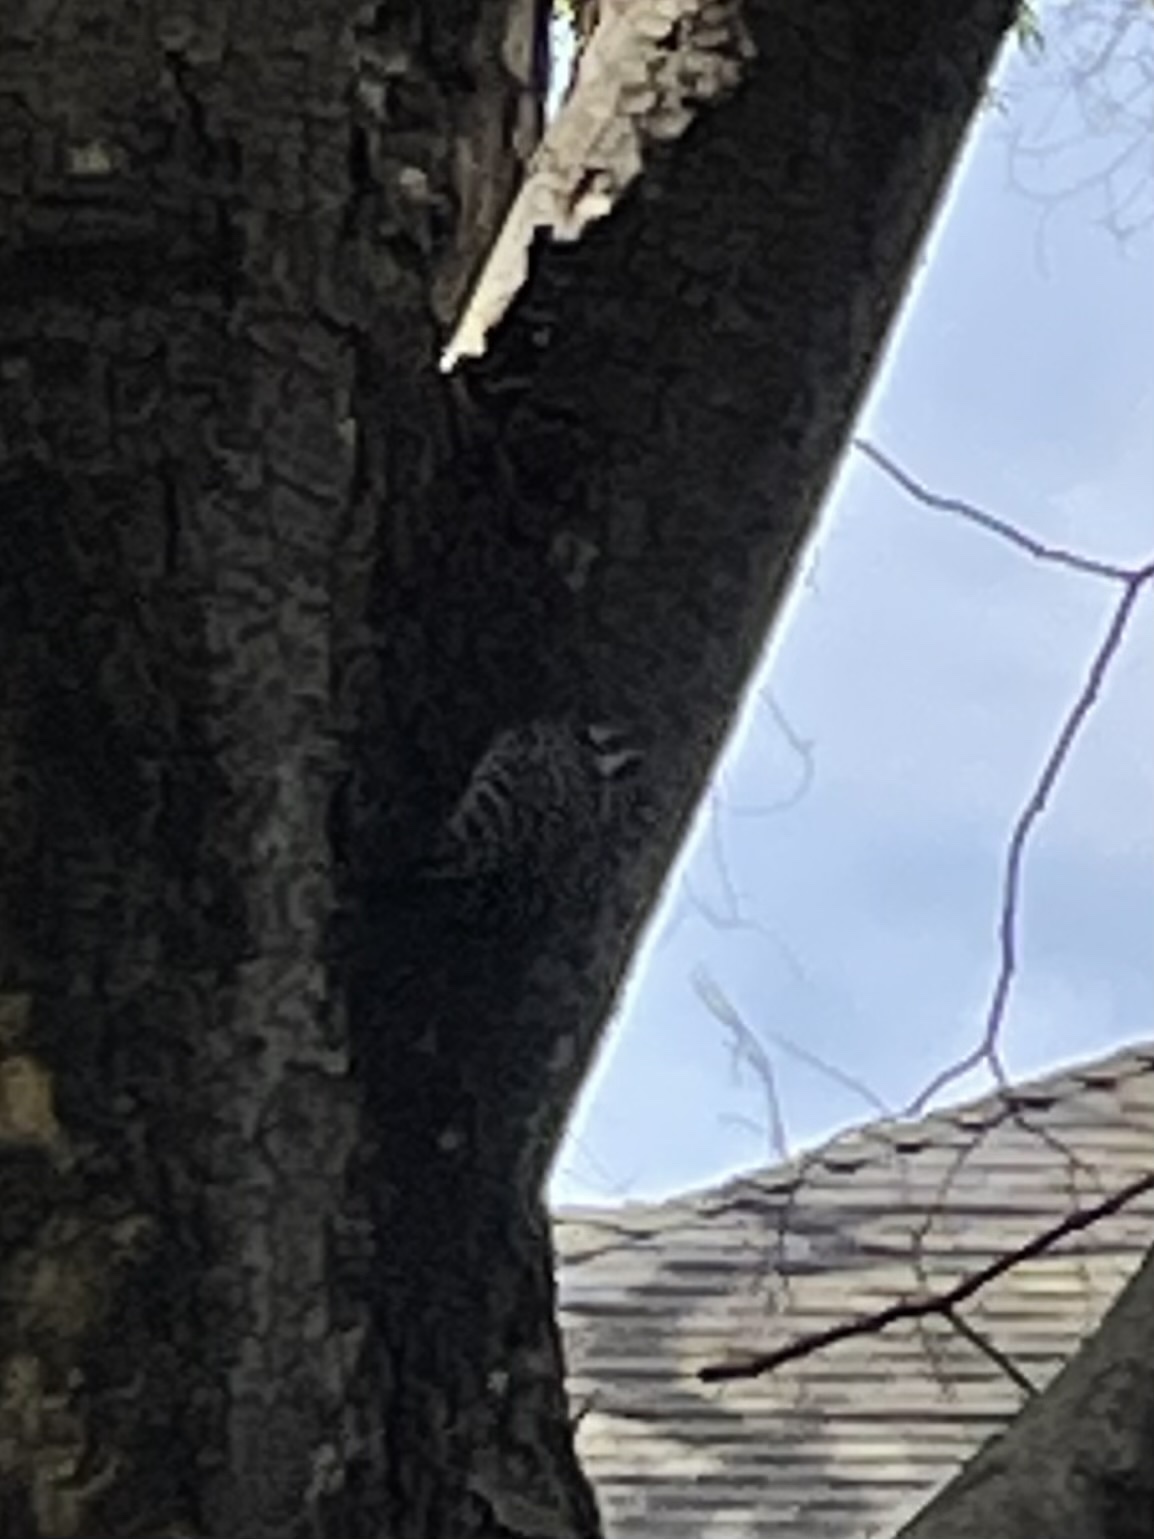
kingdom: Animalia
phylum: Chordata
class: Aves
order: Piciformes
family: Picidae
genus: Dryobates
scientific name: Dryobates nuttallii
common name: Nuttall's woodpecker
